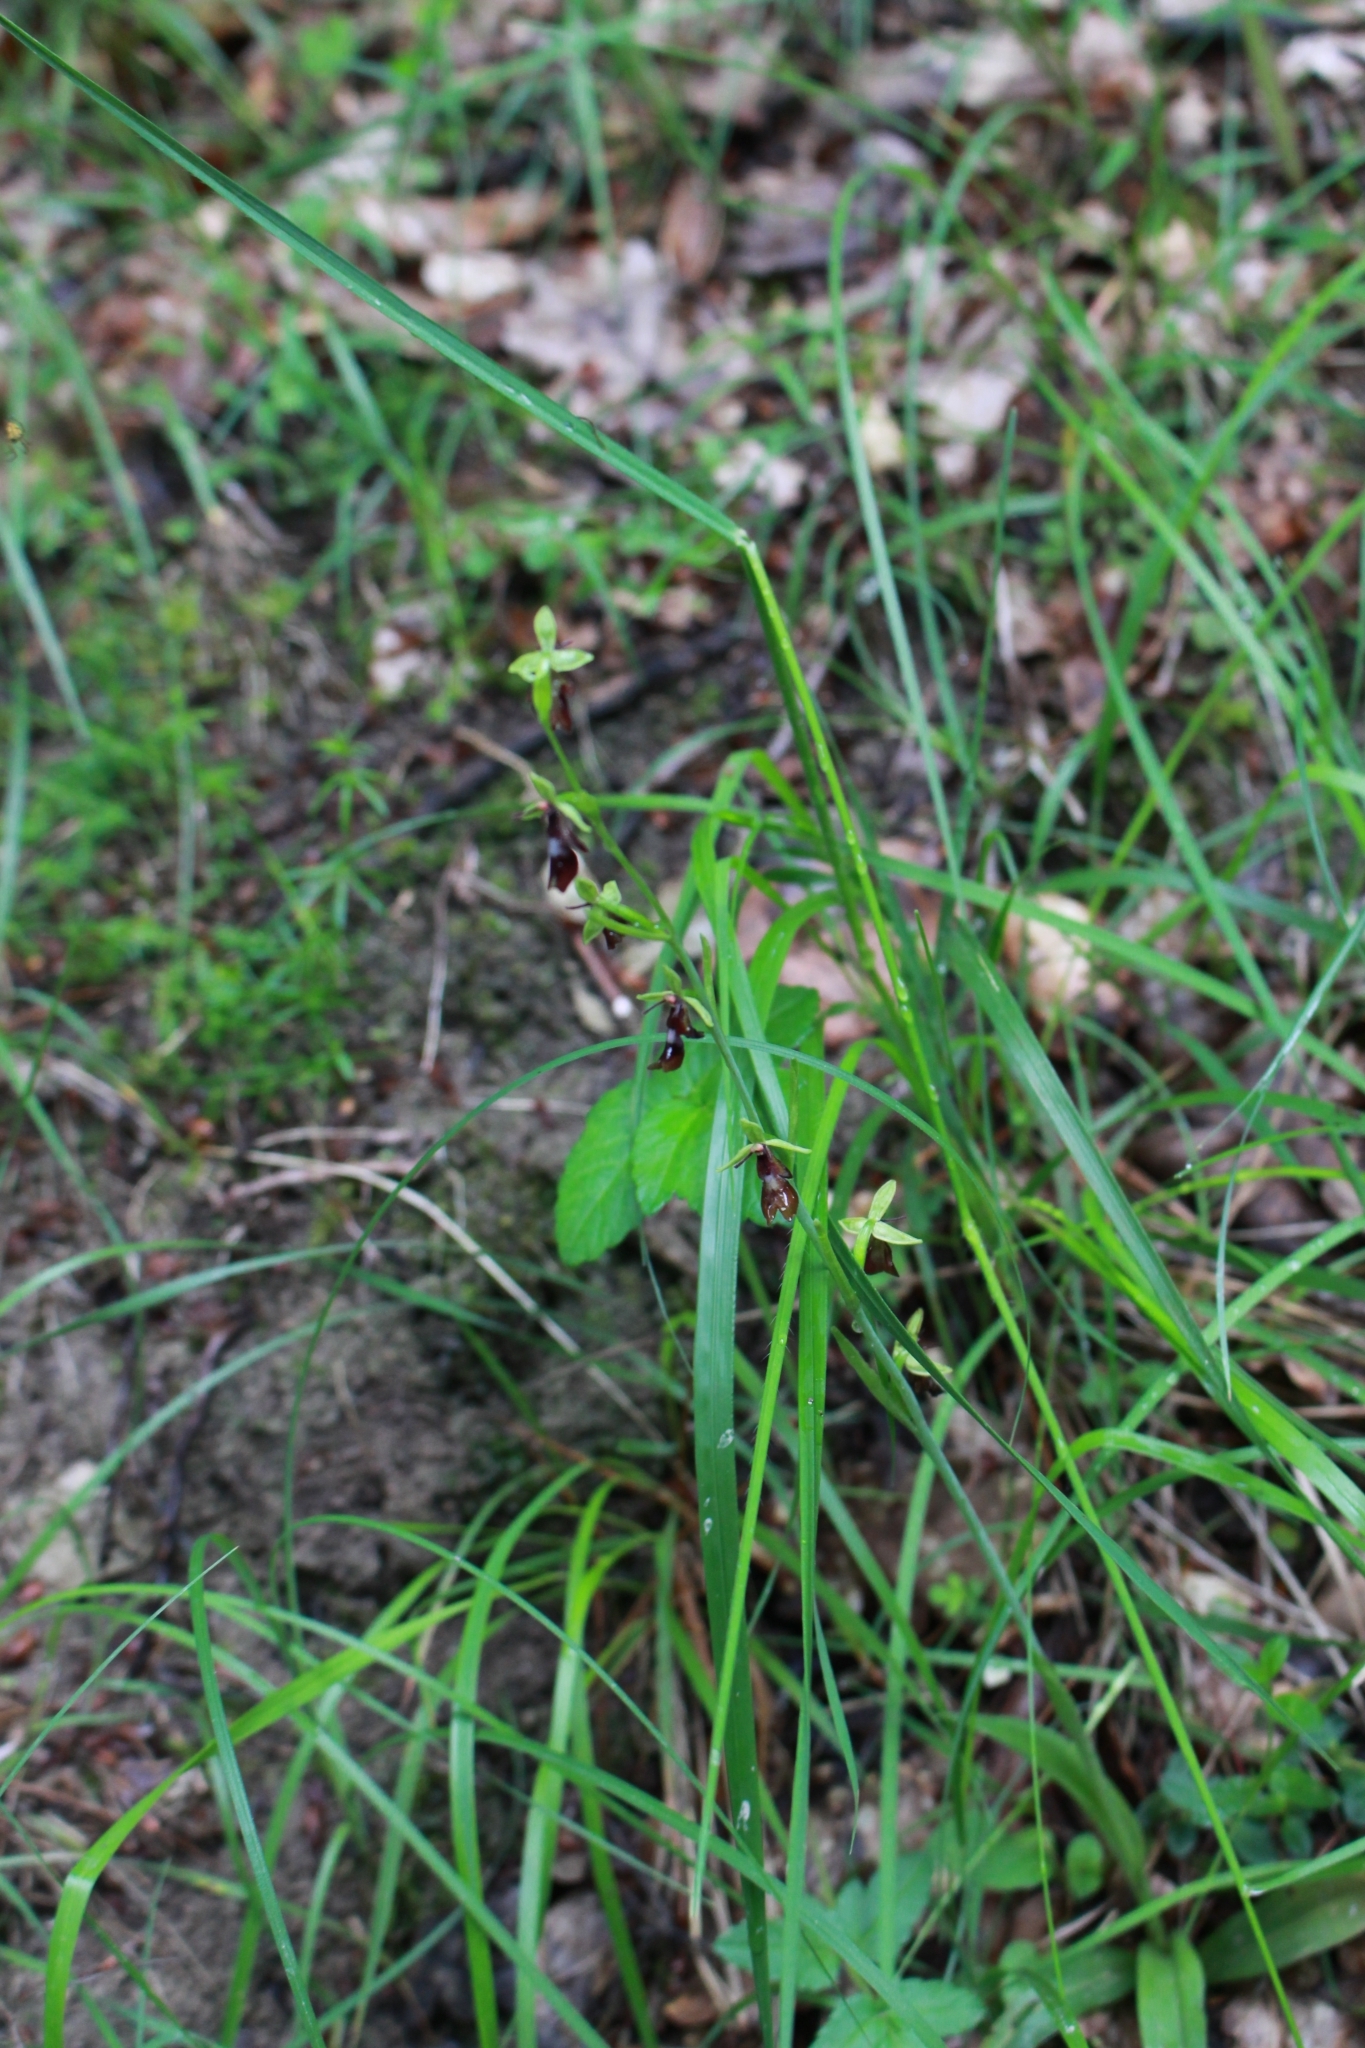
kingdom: Plantae
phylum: Tracheophyta
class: Liliopsida
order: Asparagales
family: Orchidaceae
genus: Ophrys
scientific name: Ophrys insectifera
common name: Fly orchid
